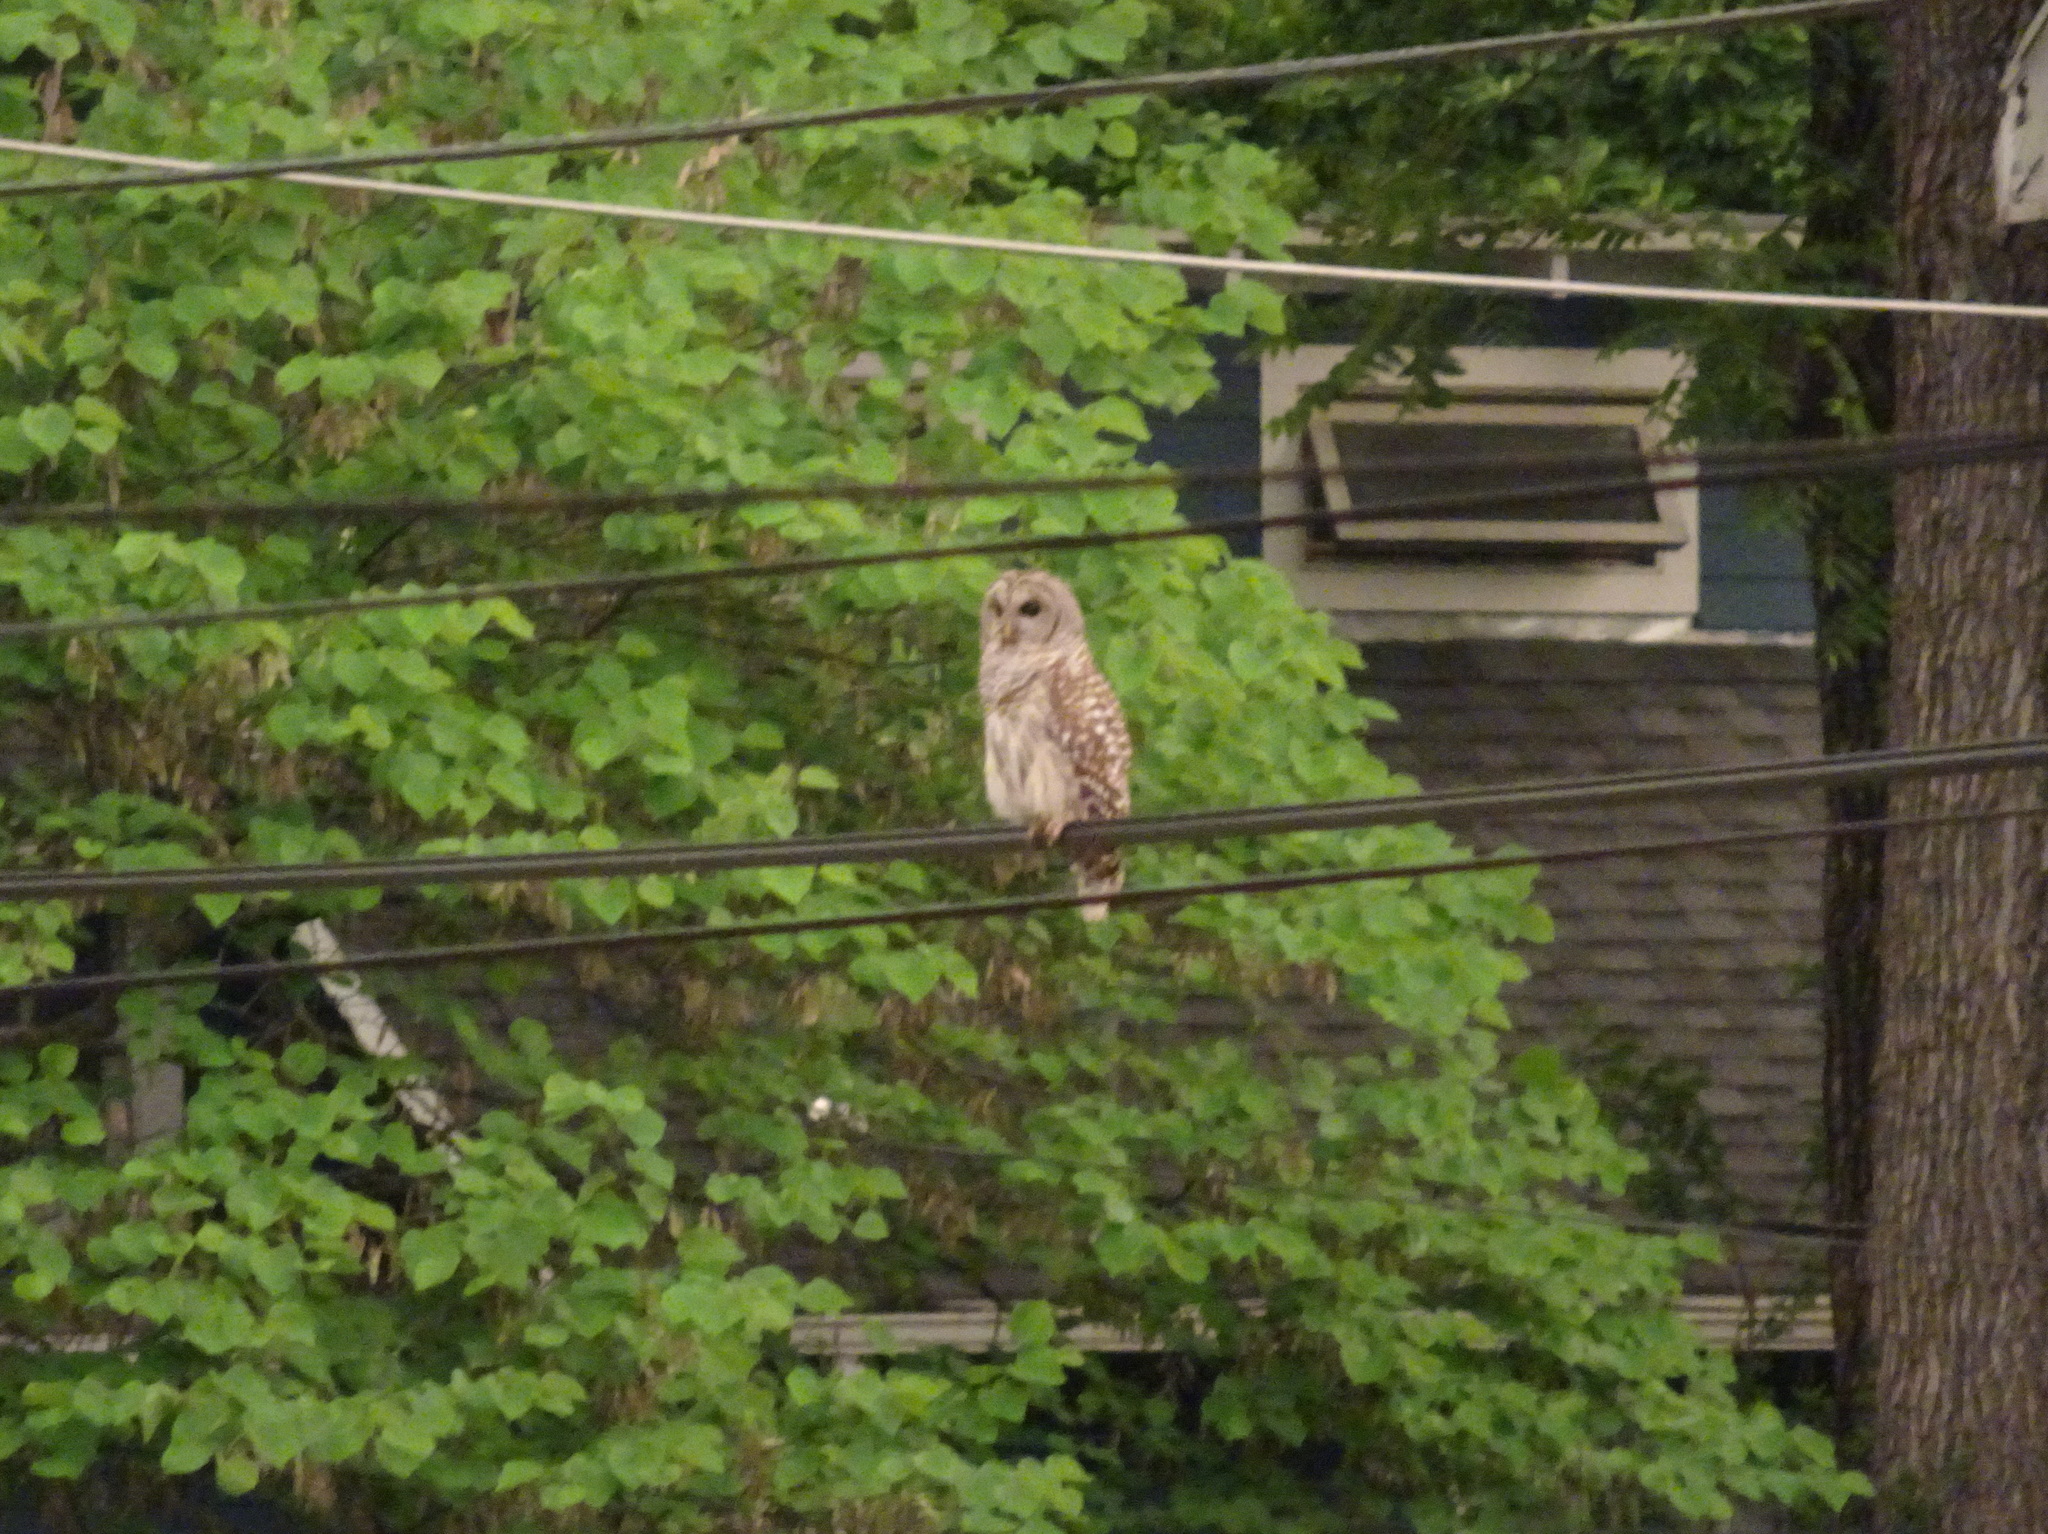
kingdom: Animalia
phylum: Chordata
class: Aves
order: Strigiformes
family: Strigidae
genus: Strix
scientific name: Strix varia
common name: Barred owl
